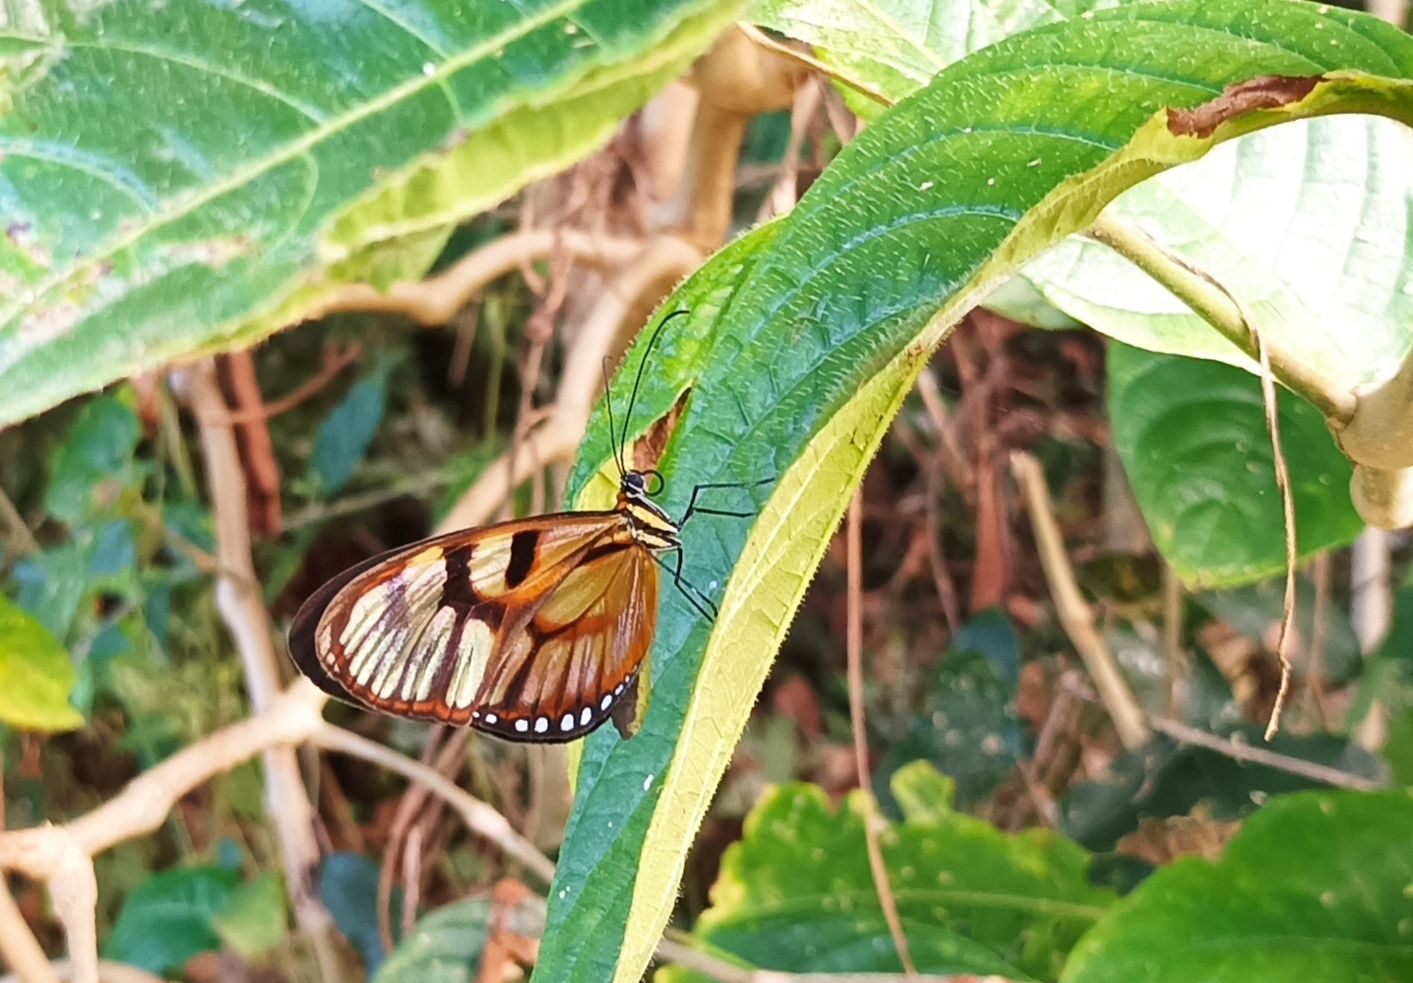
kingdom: Animalia
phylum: Arthropoda
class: Insecta
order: Lepidoptera
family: Nymphalidae
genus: Athesis
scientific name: Athesis clearista
